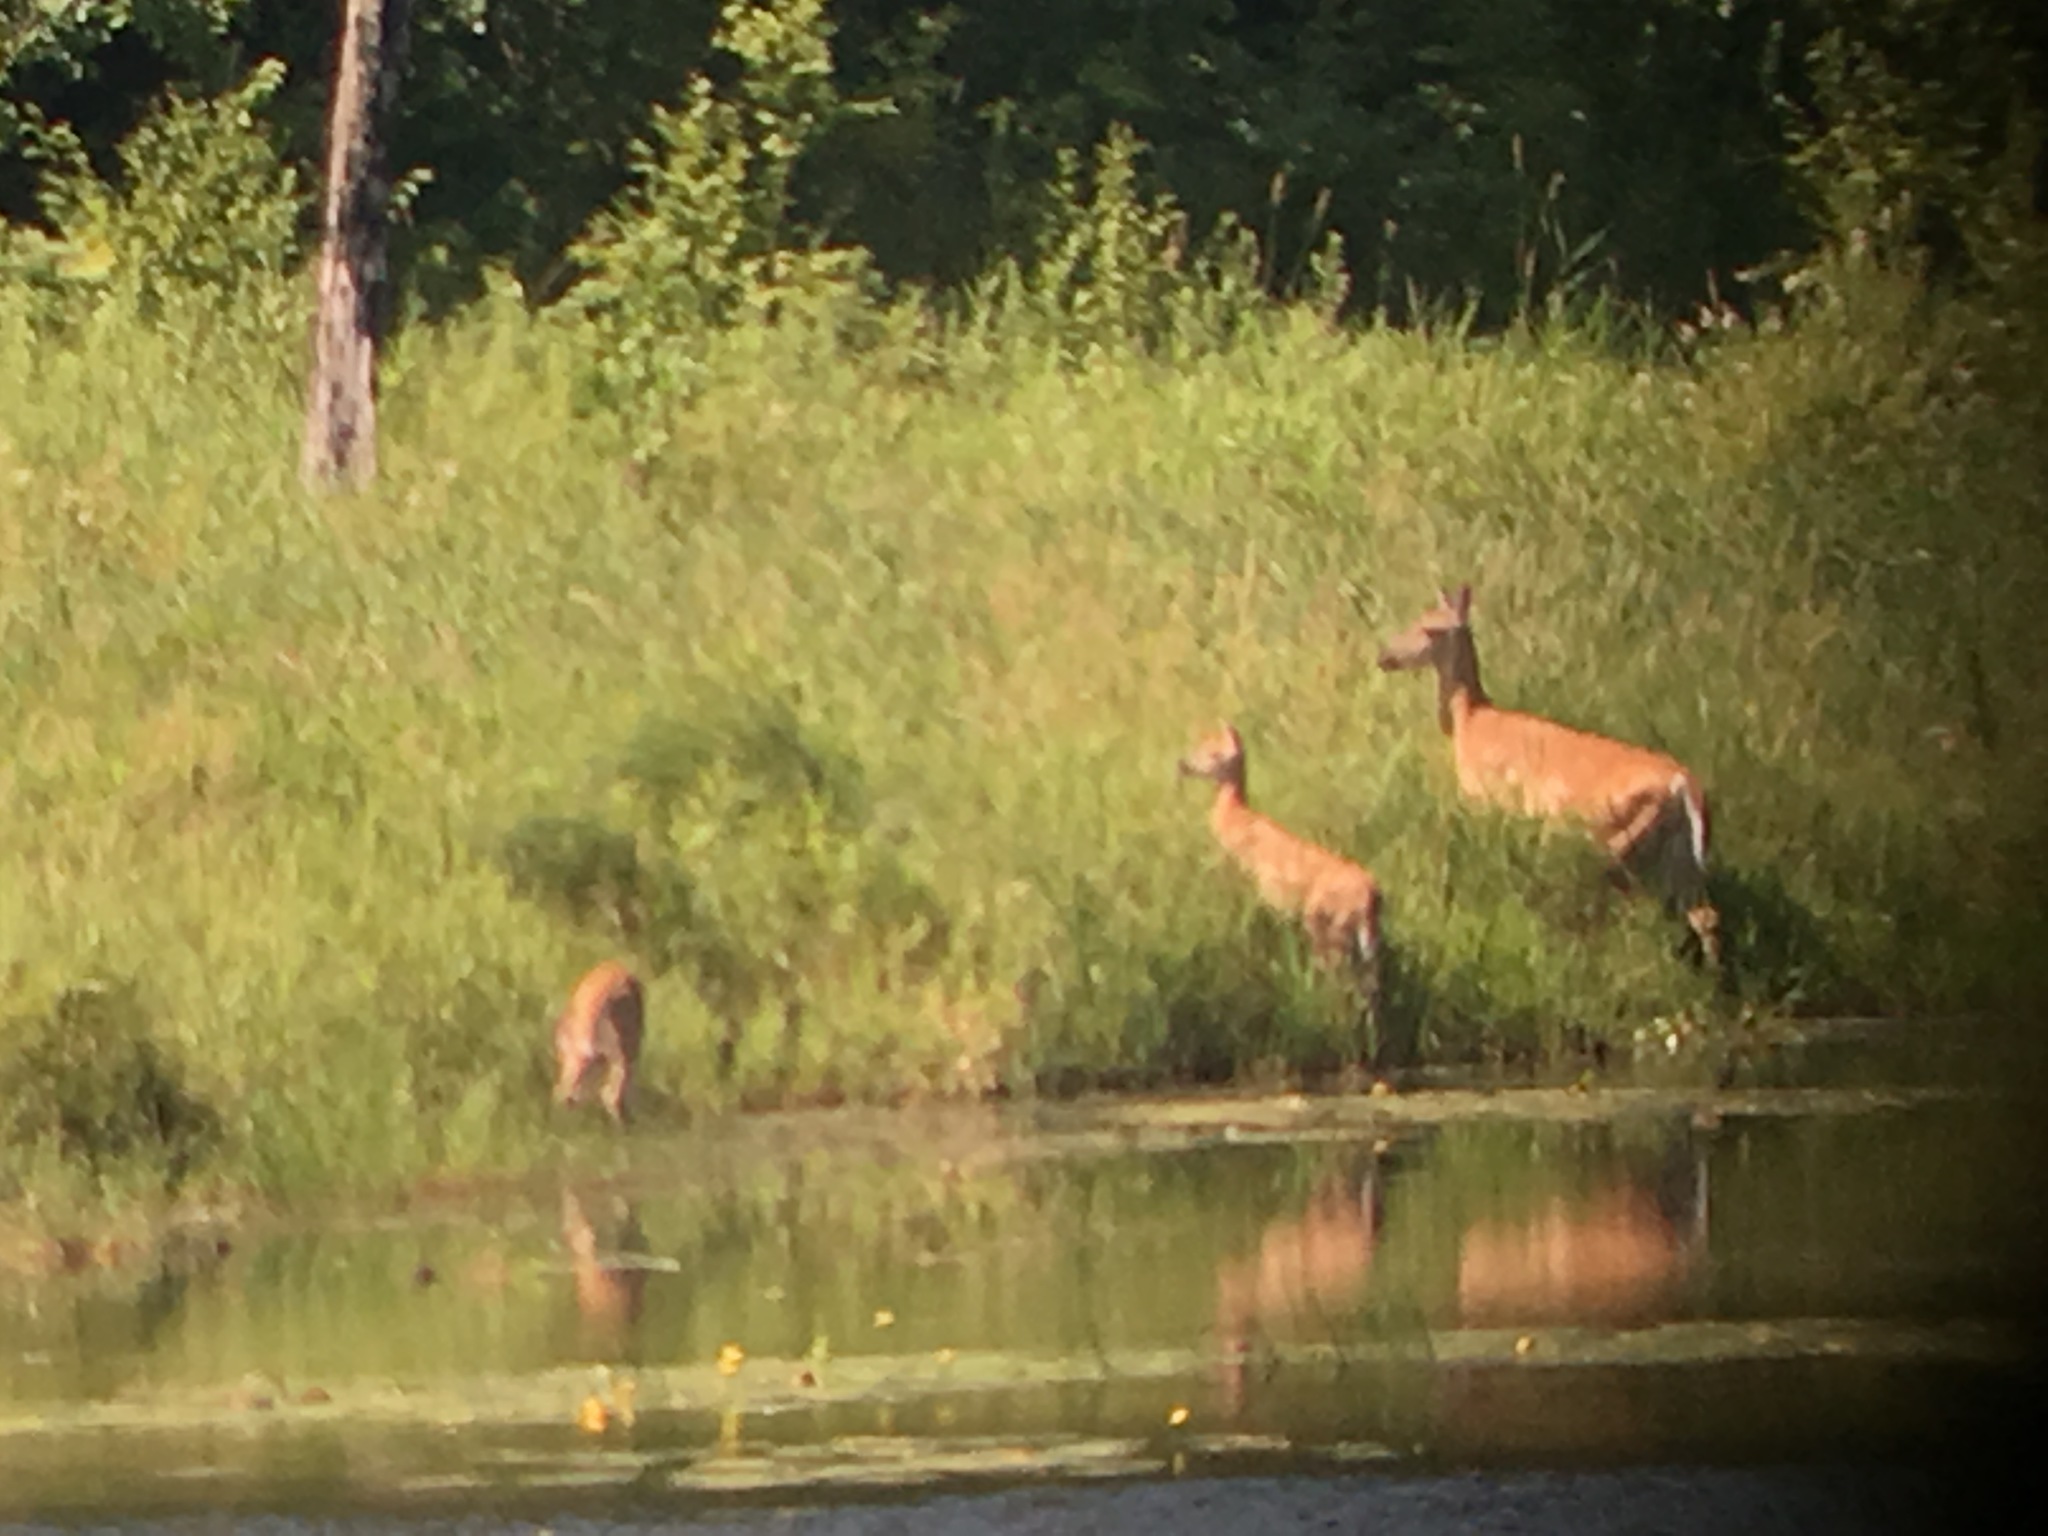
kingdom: Animalia
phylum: Chordata
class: Mammalia
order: Artiodactyla
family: Cervidae
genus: Odocoileus
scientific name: Odocoileus virginianus
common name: White-tailed deer
